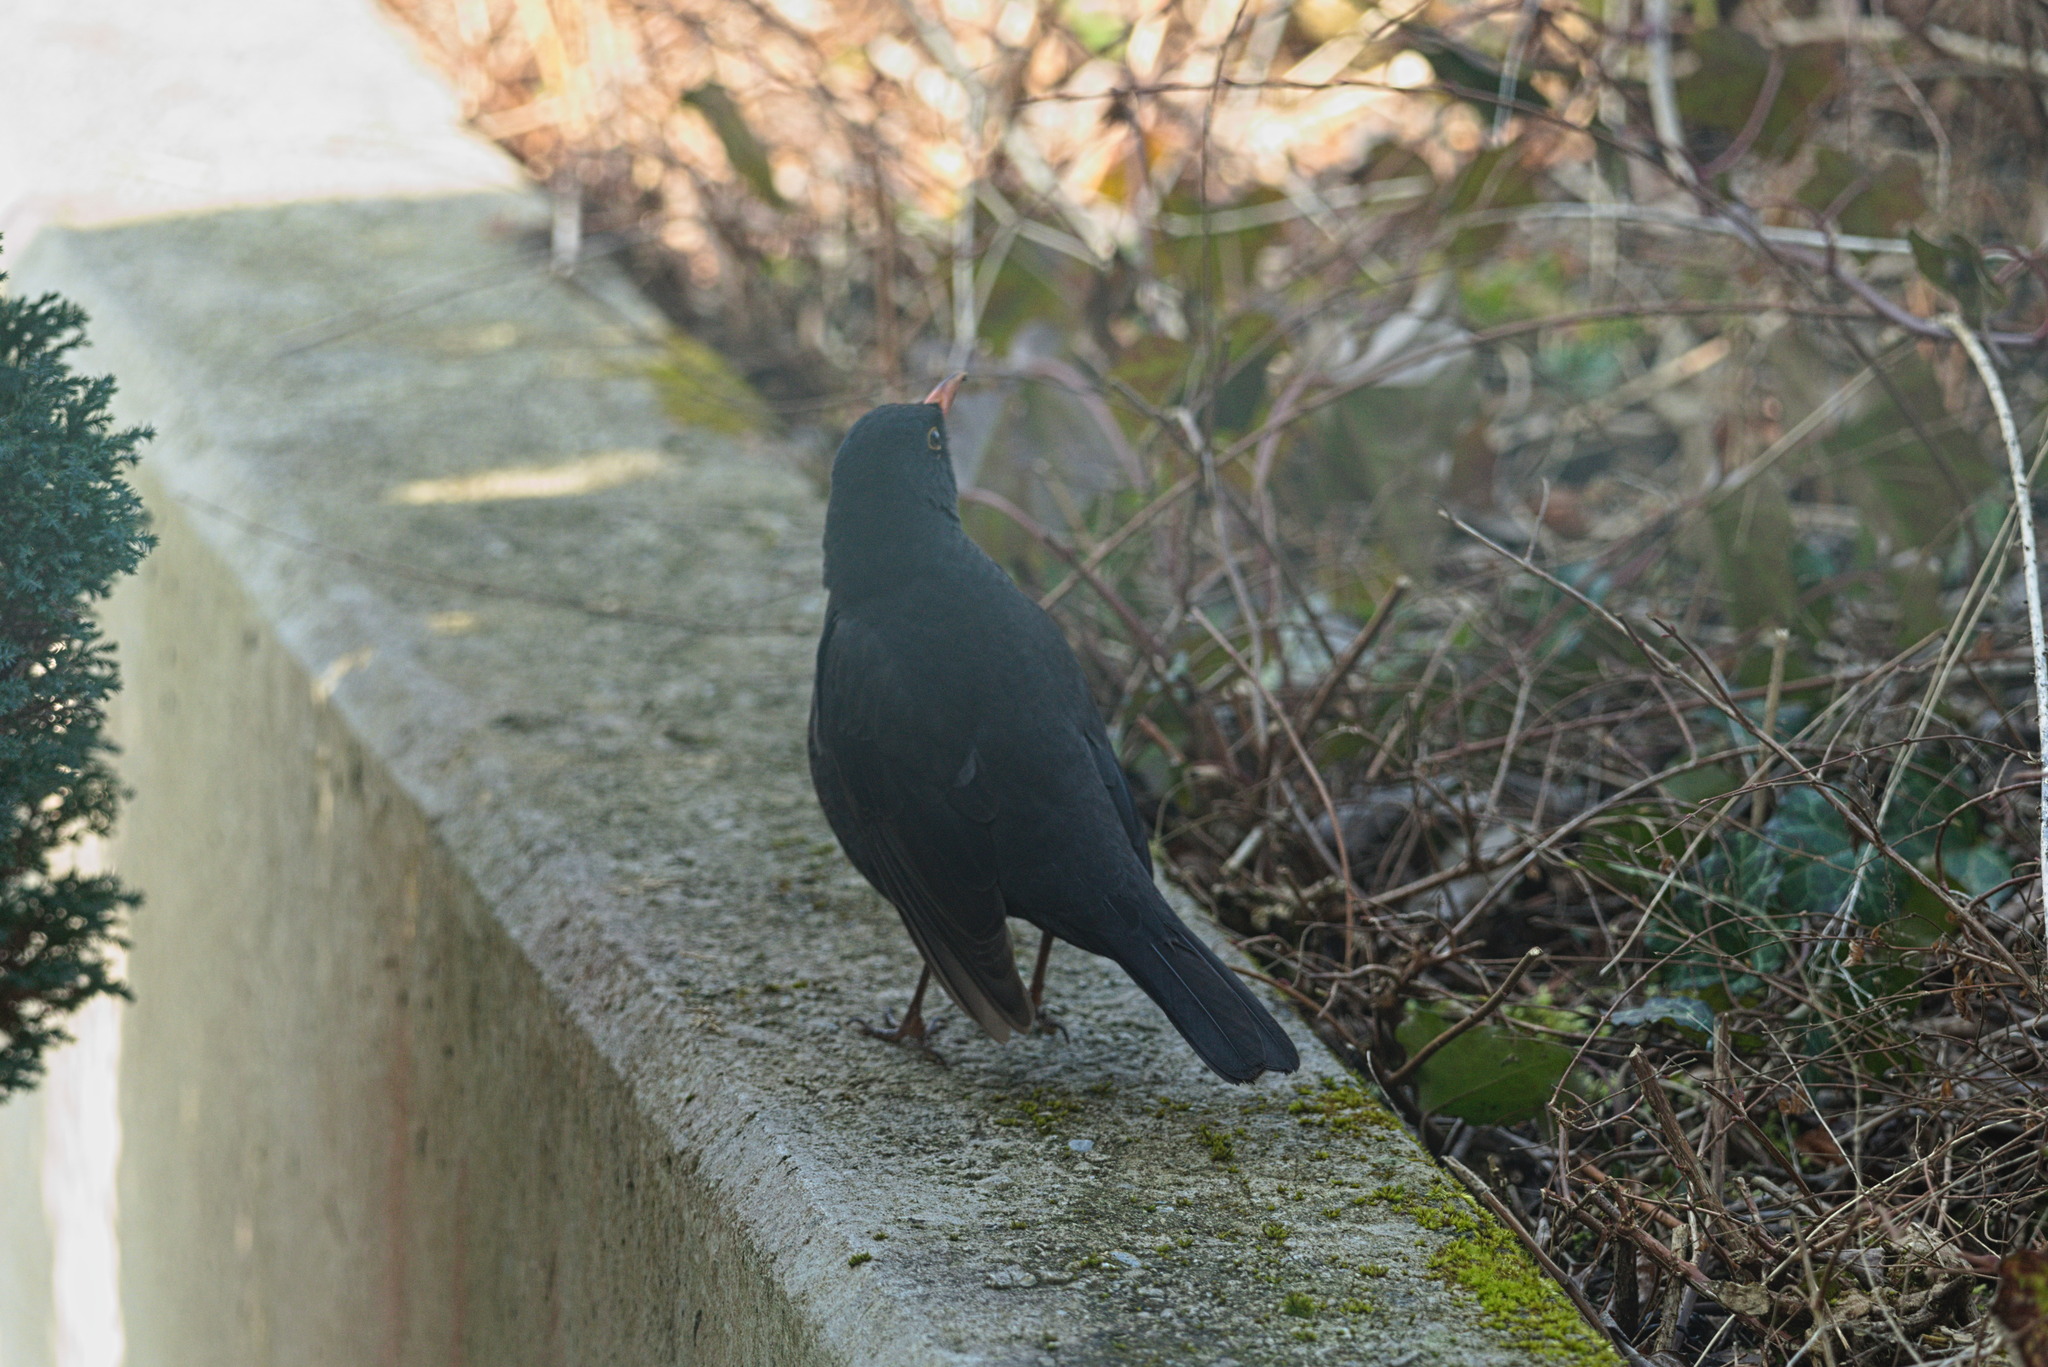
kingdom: Animalia
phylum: Chordata
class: Aves
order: Passeriformes
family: Turdidae
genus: Turdus
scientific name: Turdus merula
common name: Common blackbird
